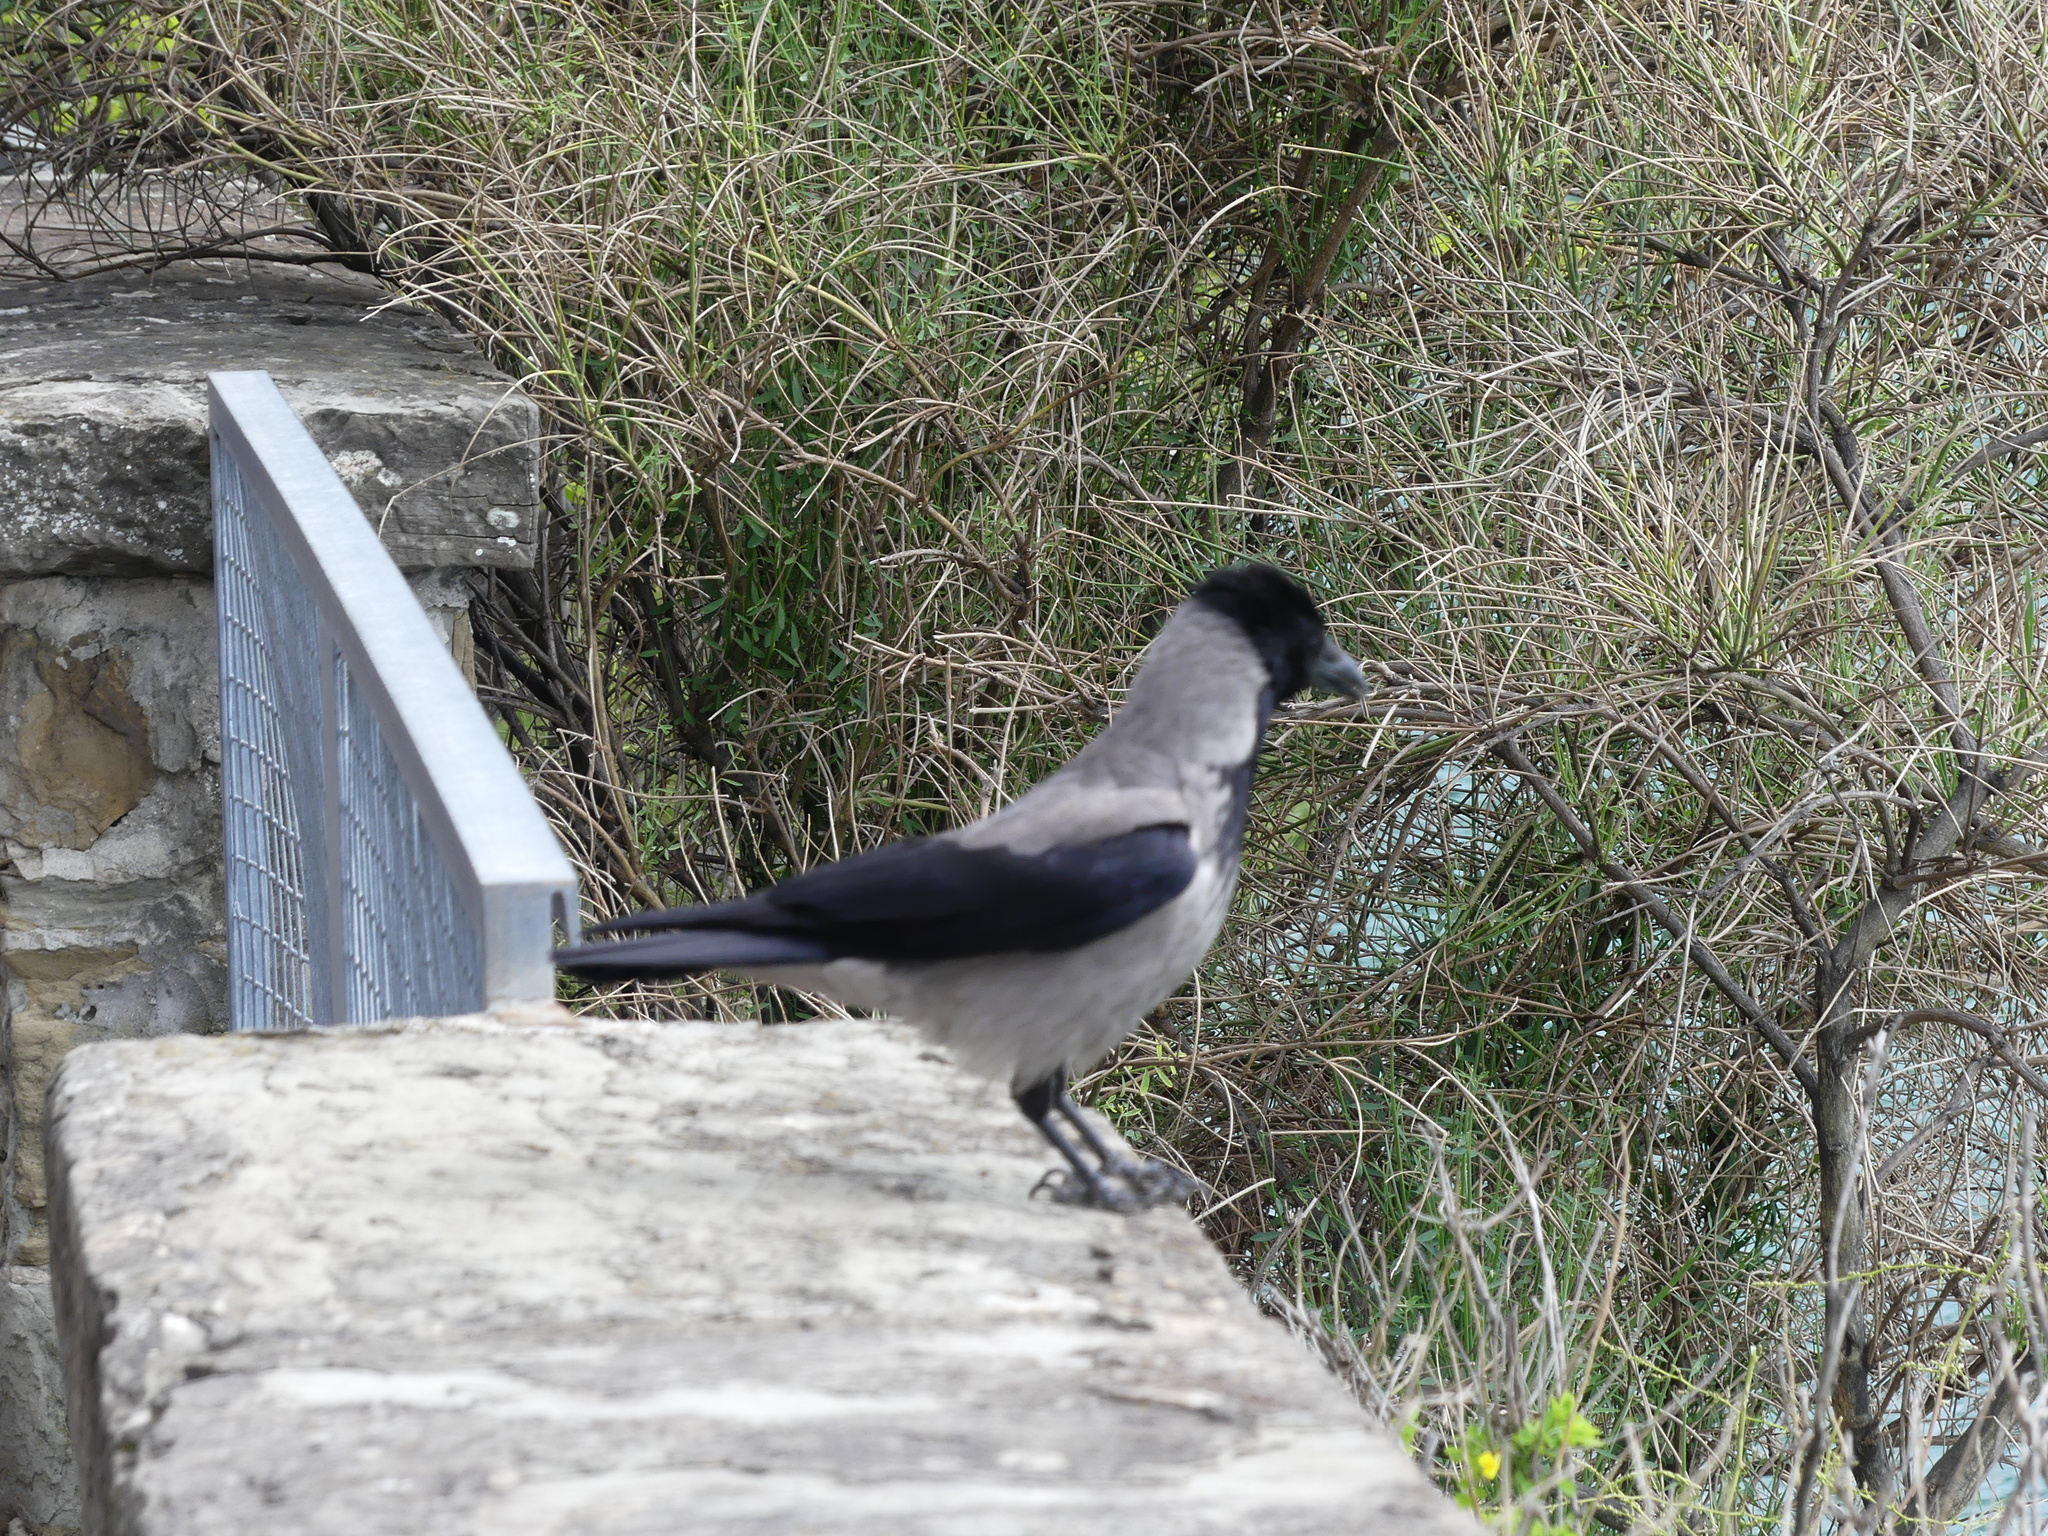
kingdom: Animalia
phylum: Chordata
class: Aves
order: Passeriformes
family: Corvidae
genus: Corvus
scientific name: Corvus cornix
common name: Hooded crow
